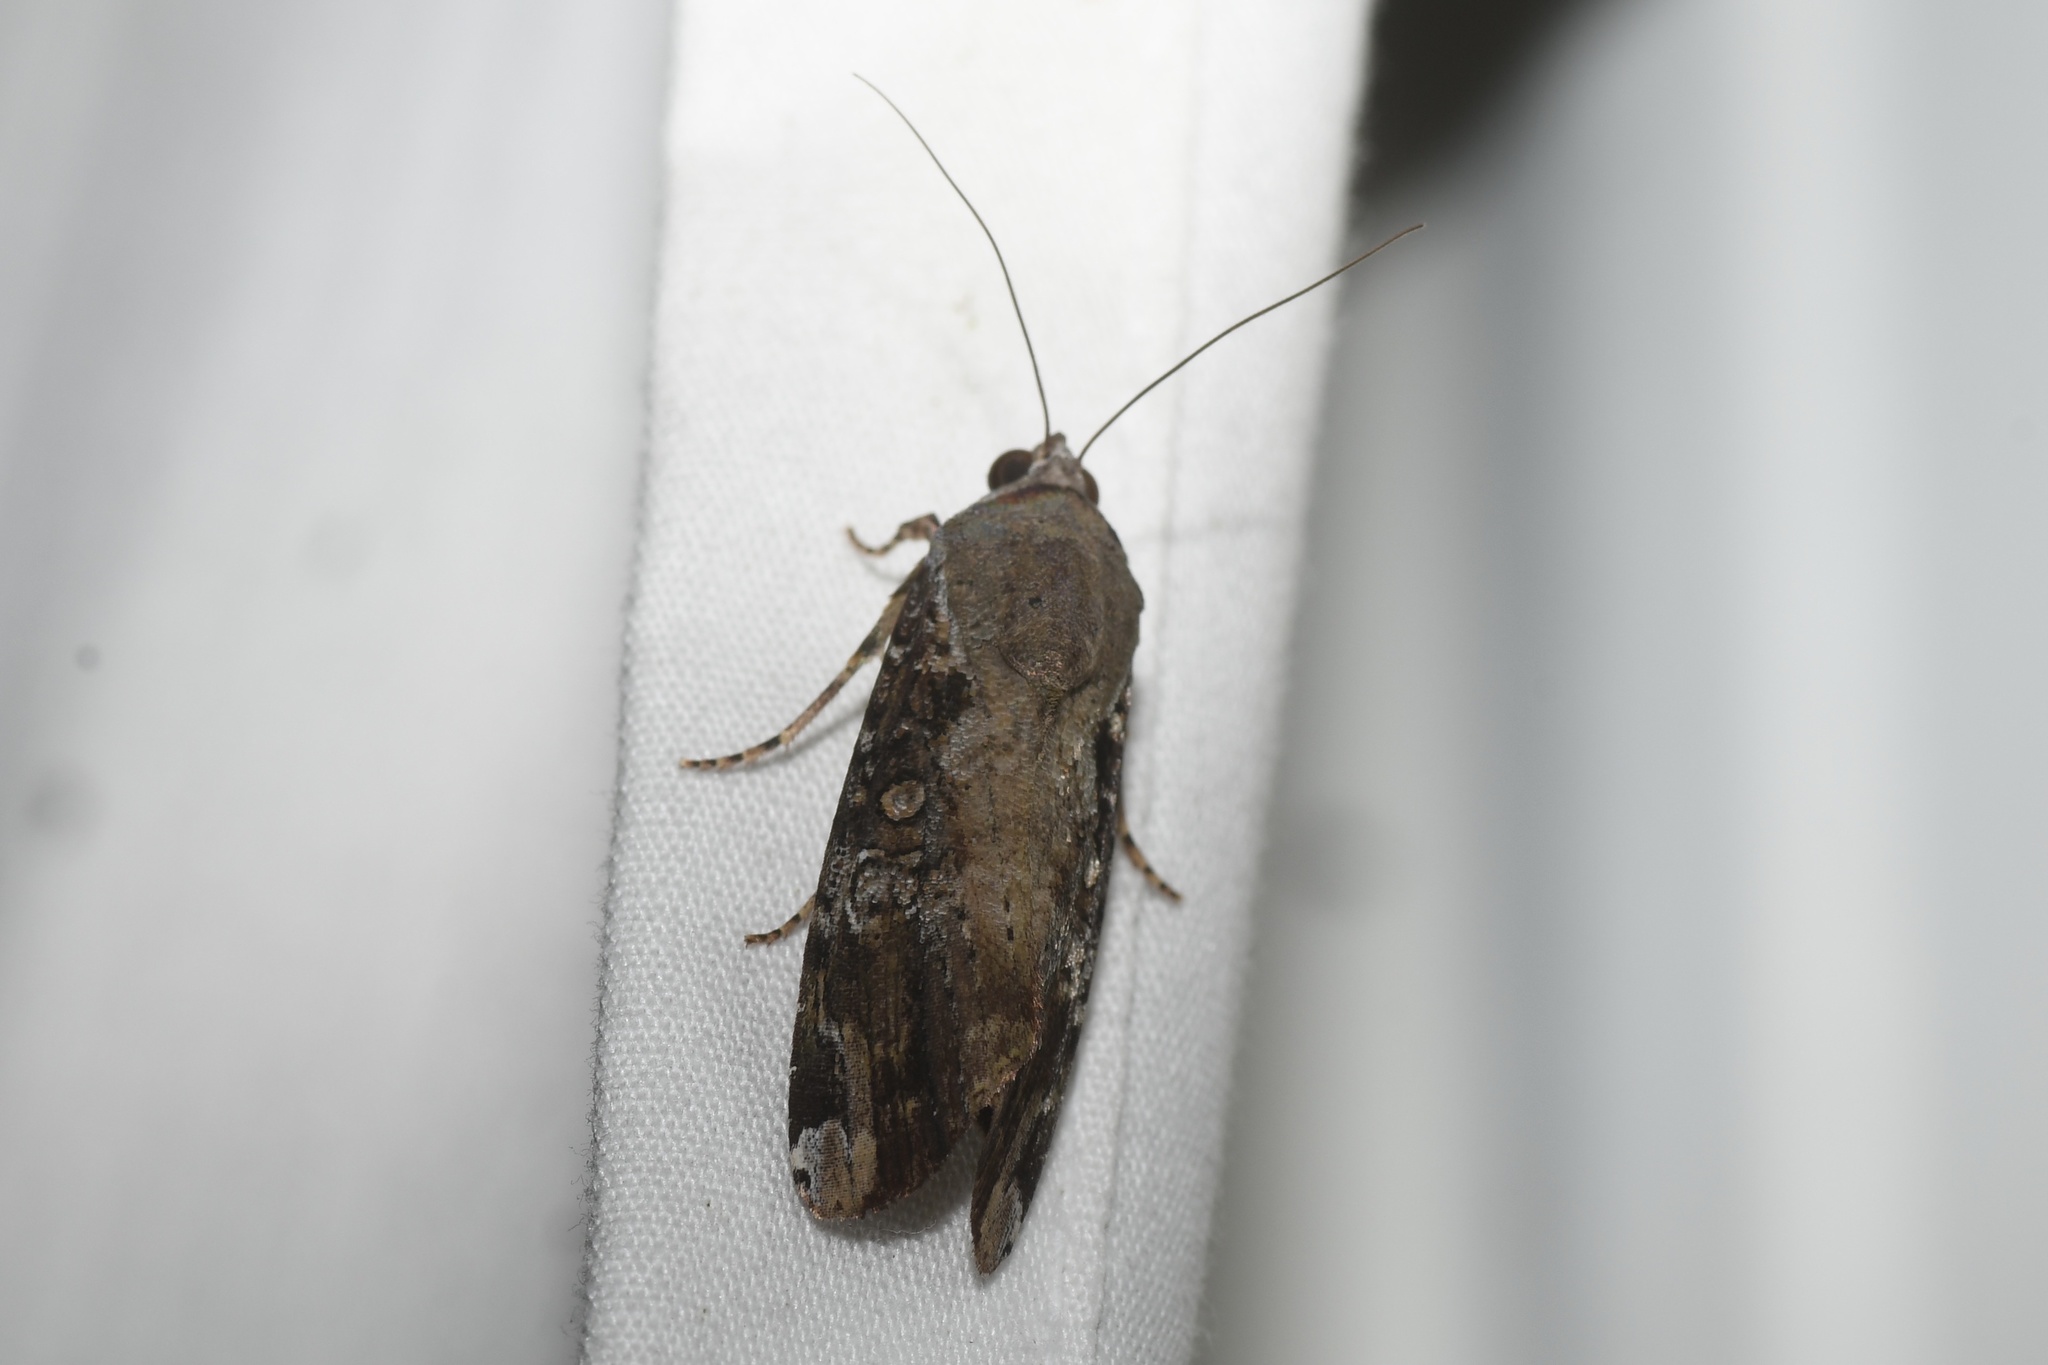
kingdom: Animalia
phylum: Arthropoda
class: Insecta
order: Lepidoptera
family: Noctuidae
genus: Magusa
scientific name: Magusa divaricata
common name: Orb narrow-winged moth
